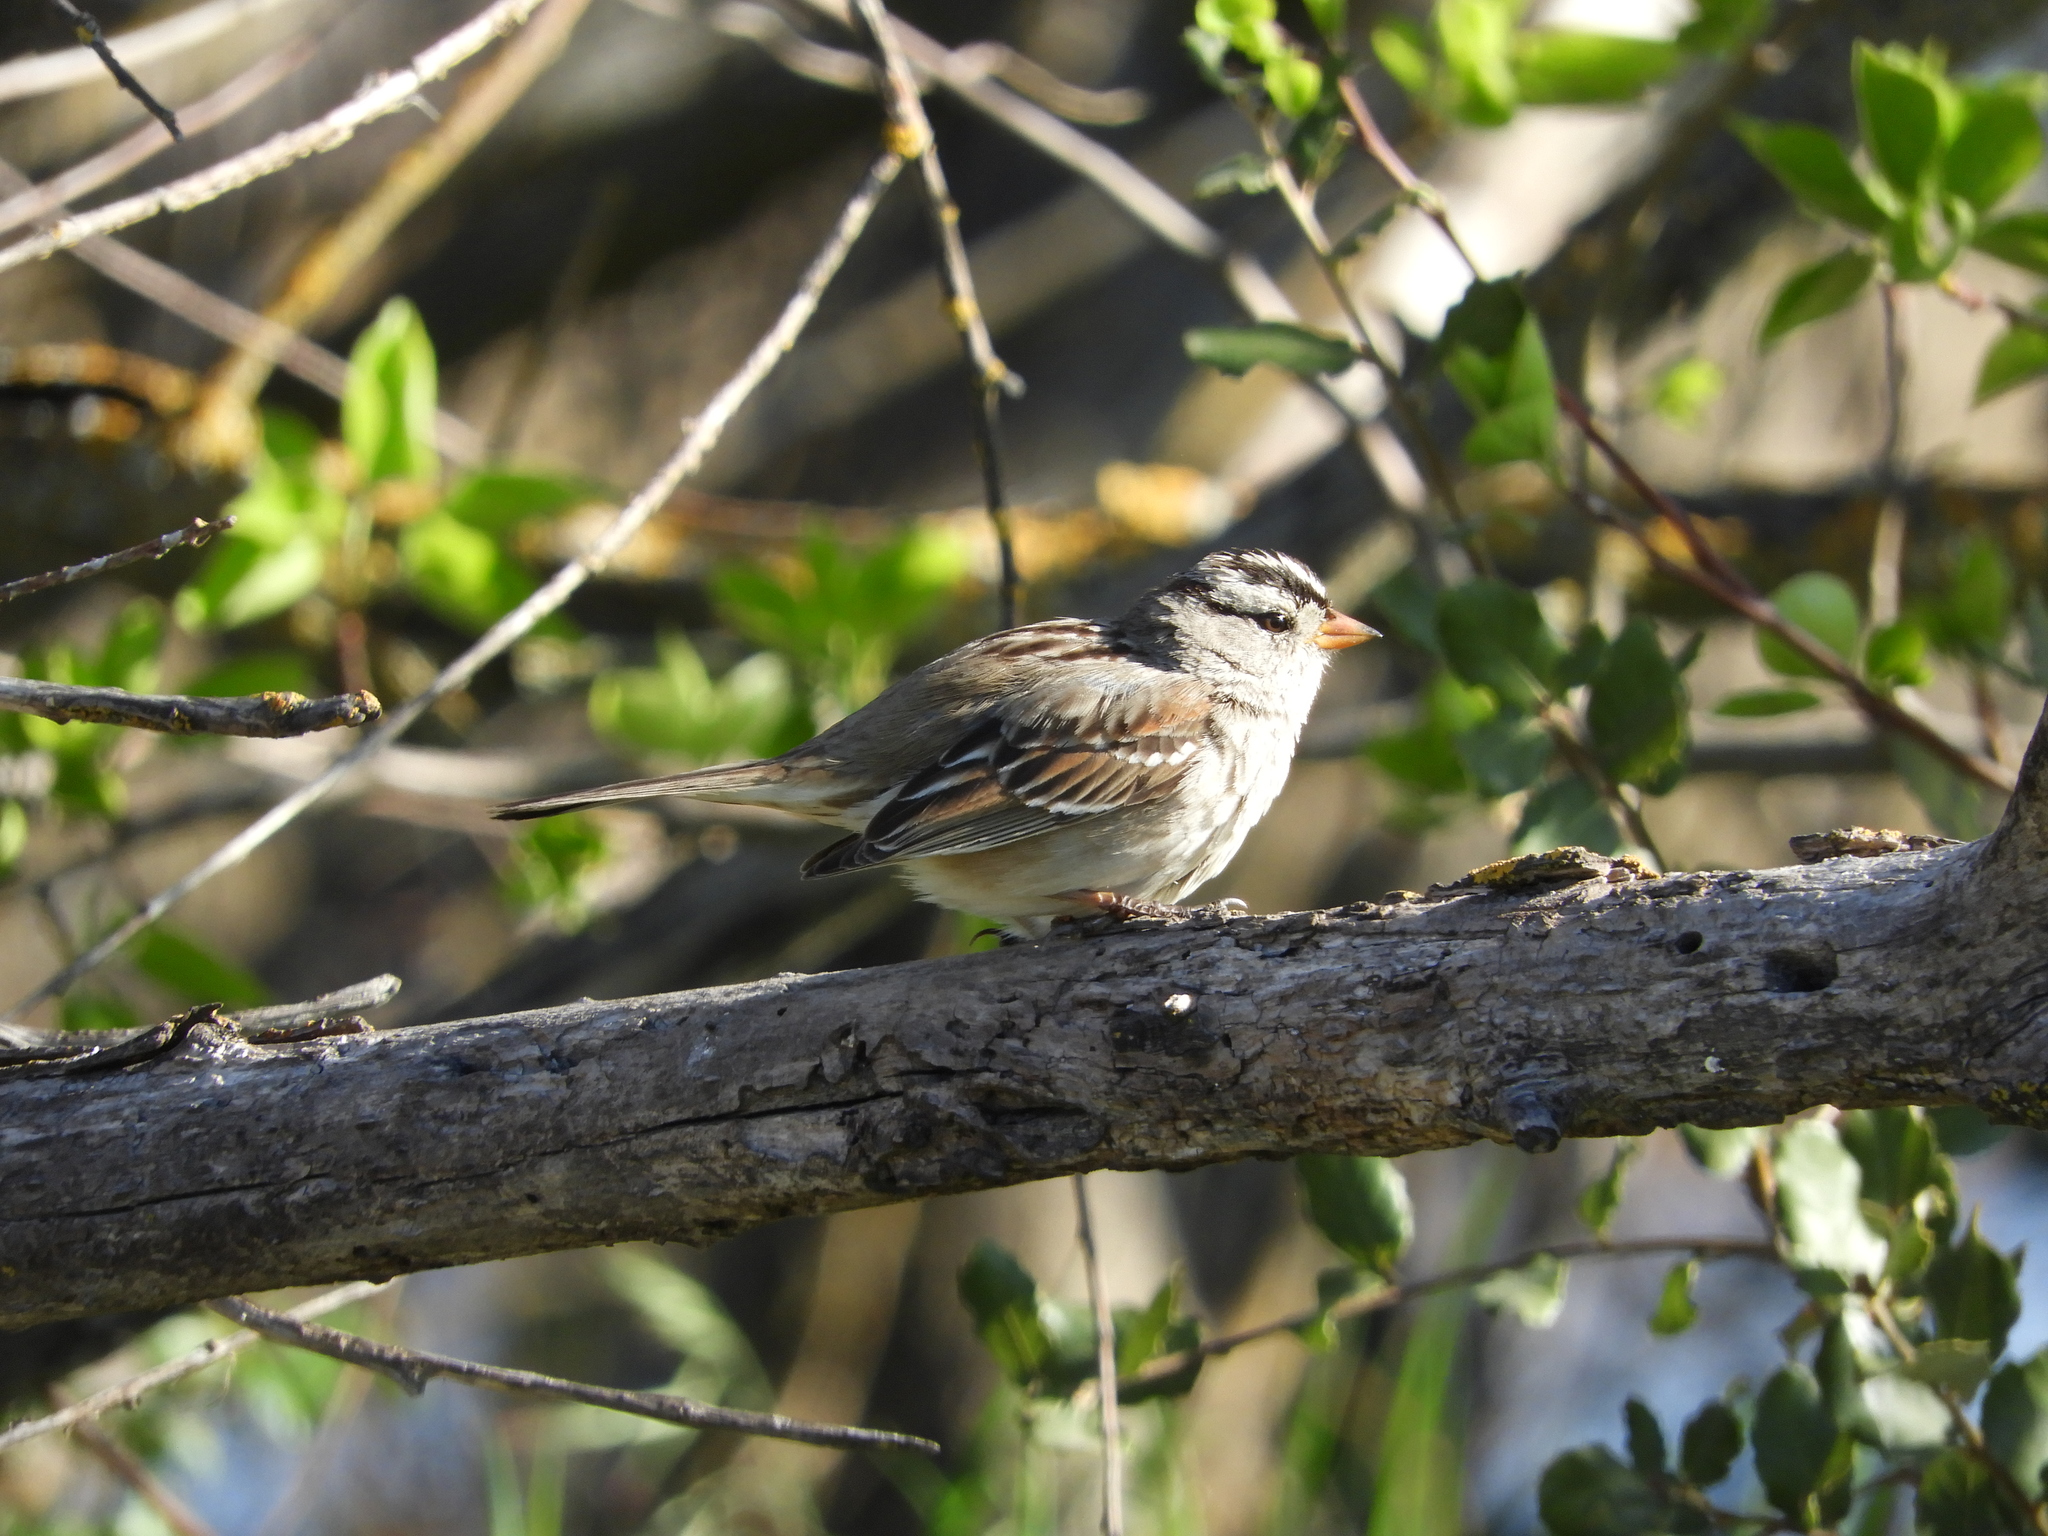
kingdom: Animalia
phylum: Chordata
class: Aves
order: Passeriformes
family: Passerellidae
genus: Zonotrichia
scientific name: Zonotrichia leucophrys
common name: White-crowned sparrow
